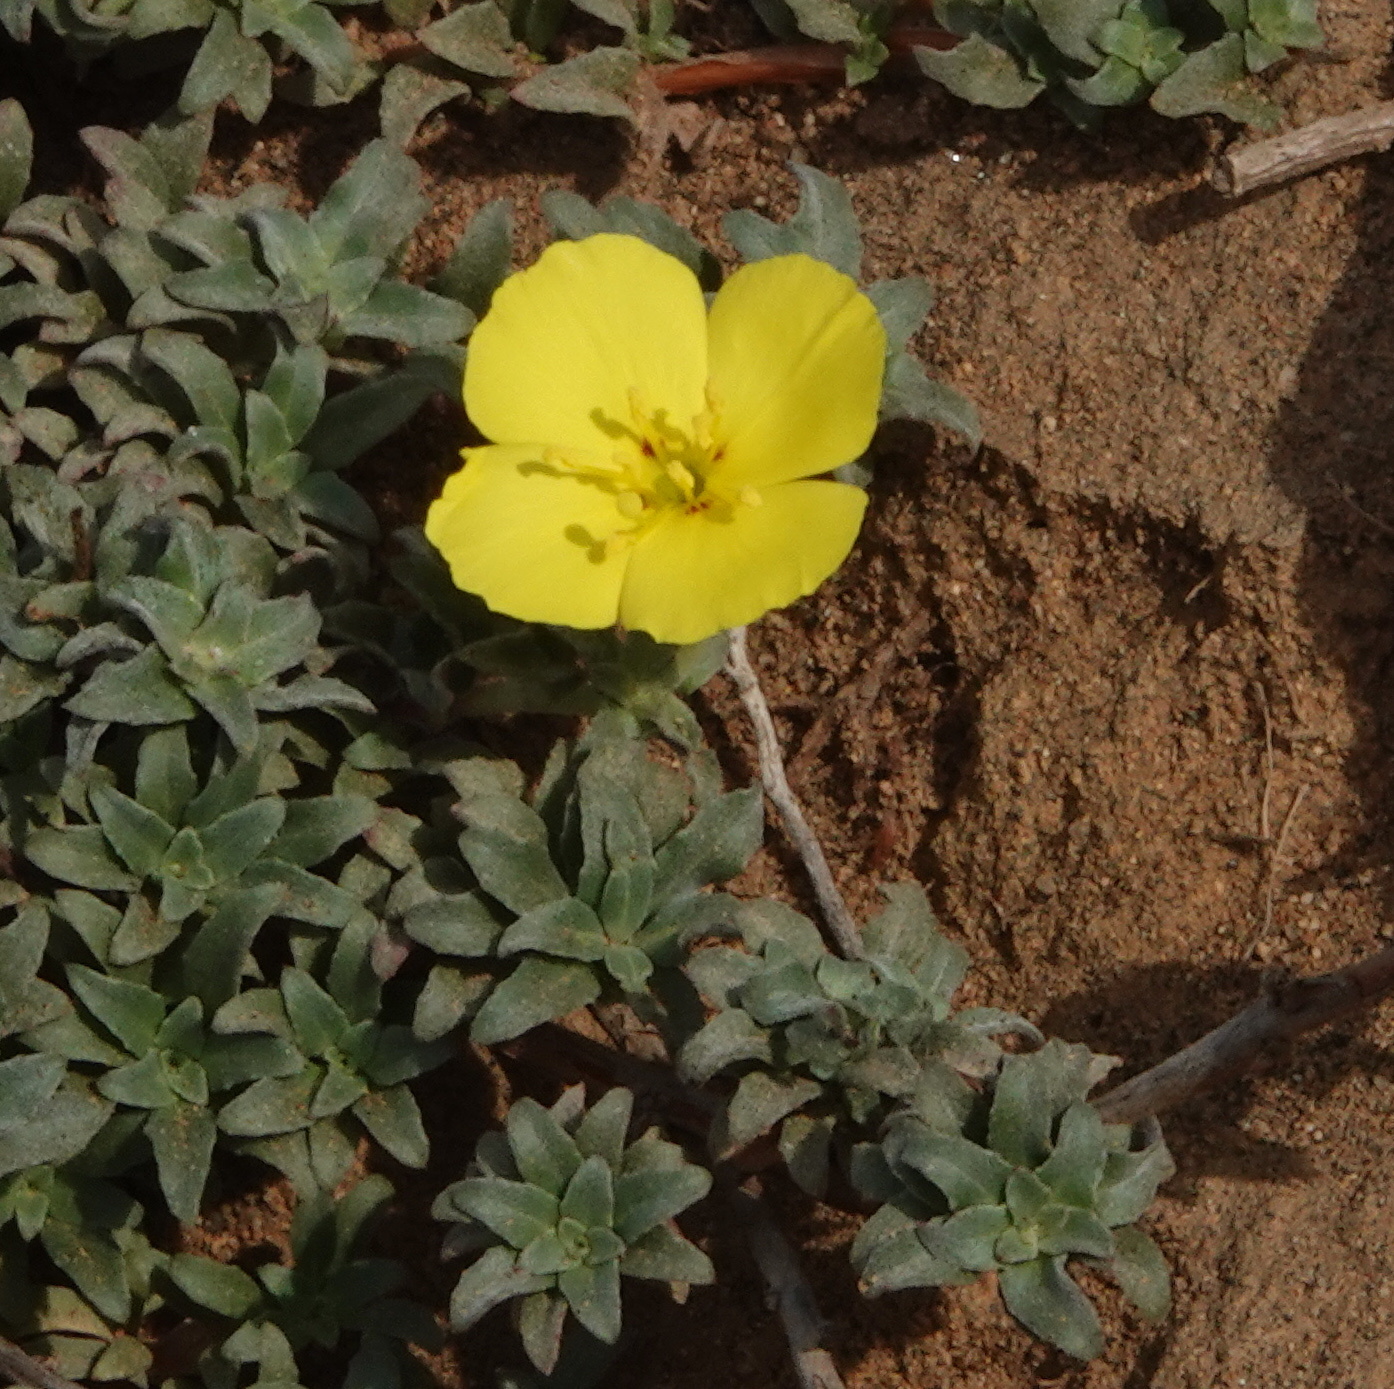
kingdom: Plantae
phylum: Tracheophyta
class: Magnoliopsida
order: Myrtales
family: Onagraceae
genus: Camissoniopsis
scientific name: Camissoniopsis cheiranthifolia
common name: Beach suncup
